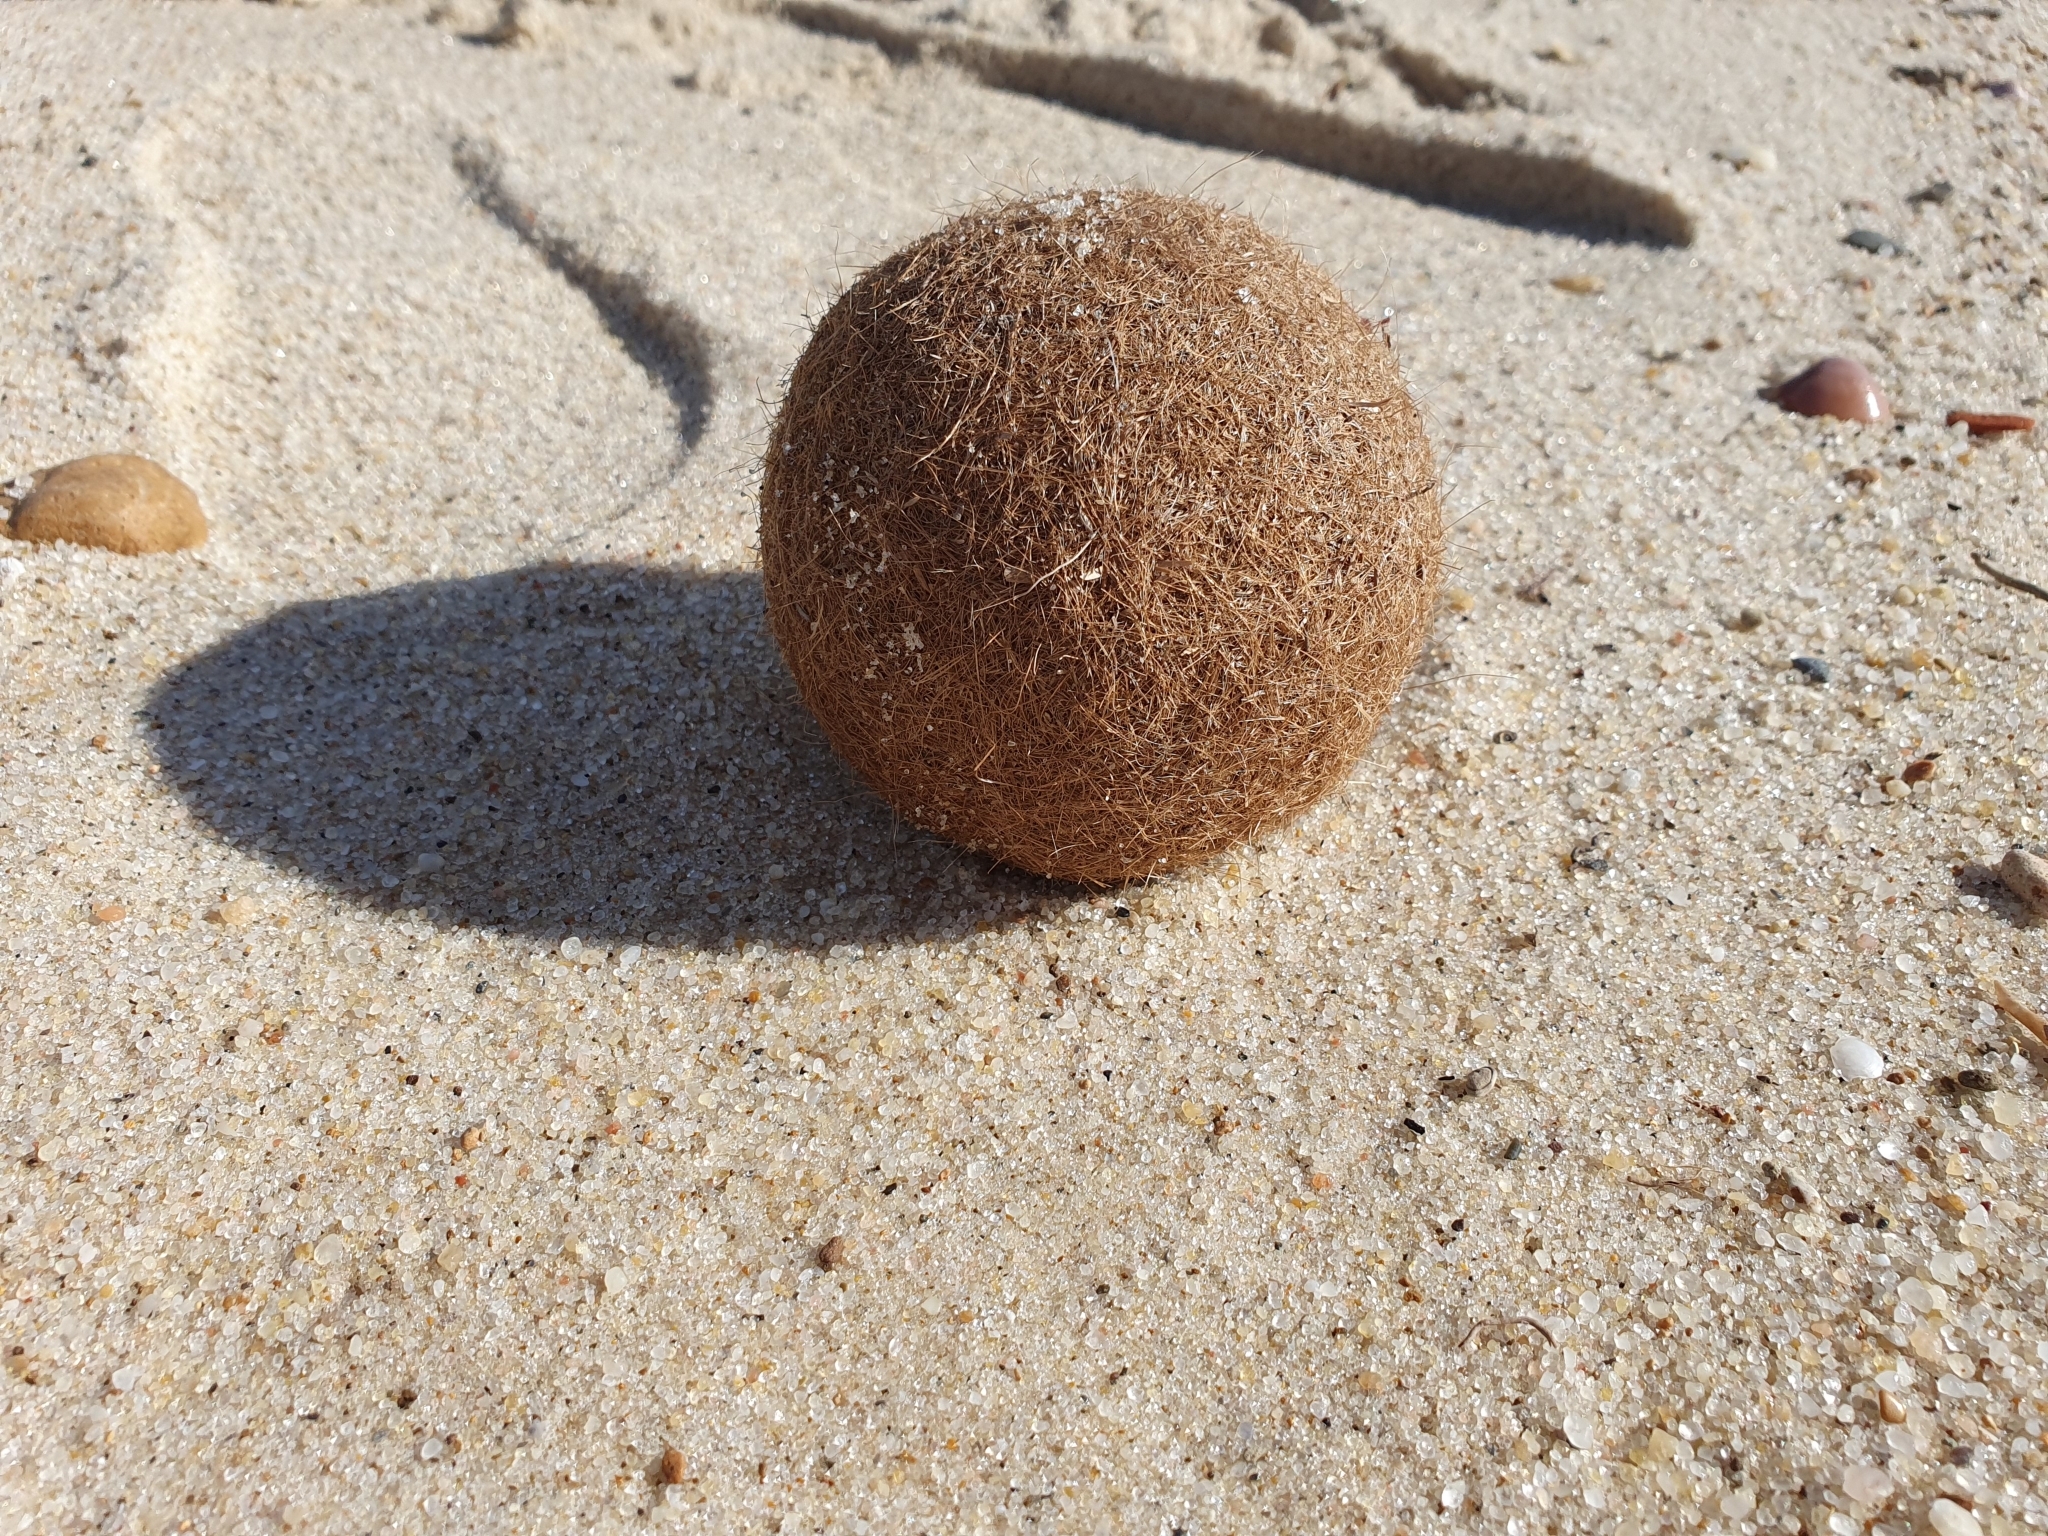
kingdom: Plantae
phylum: Tracheophyta
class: Liliopsida
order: Alismatales
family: Posidoniaceae
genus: Posidonia
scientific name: Posidonia oceanica
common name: Mediterranean tapeweed
